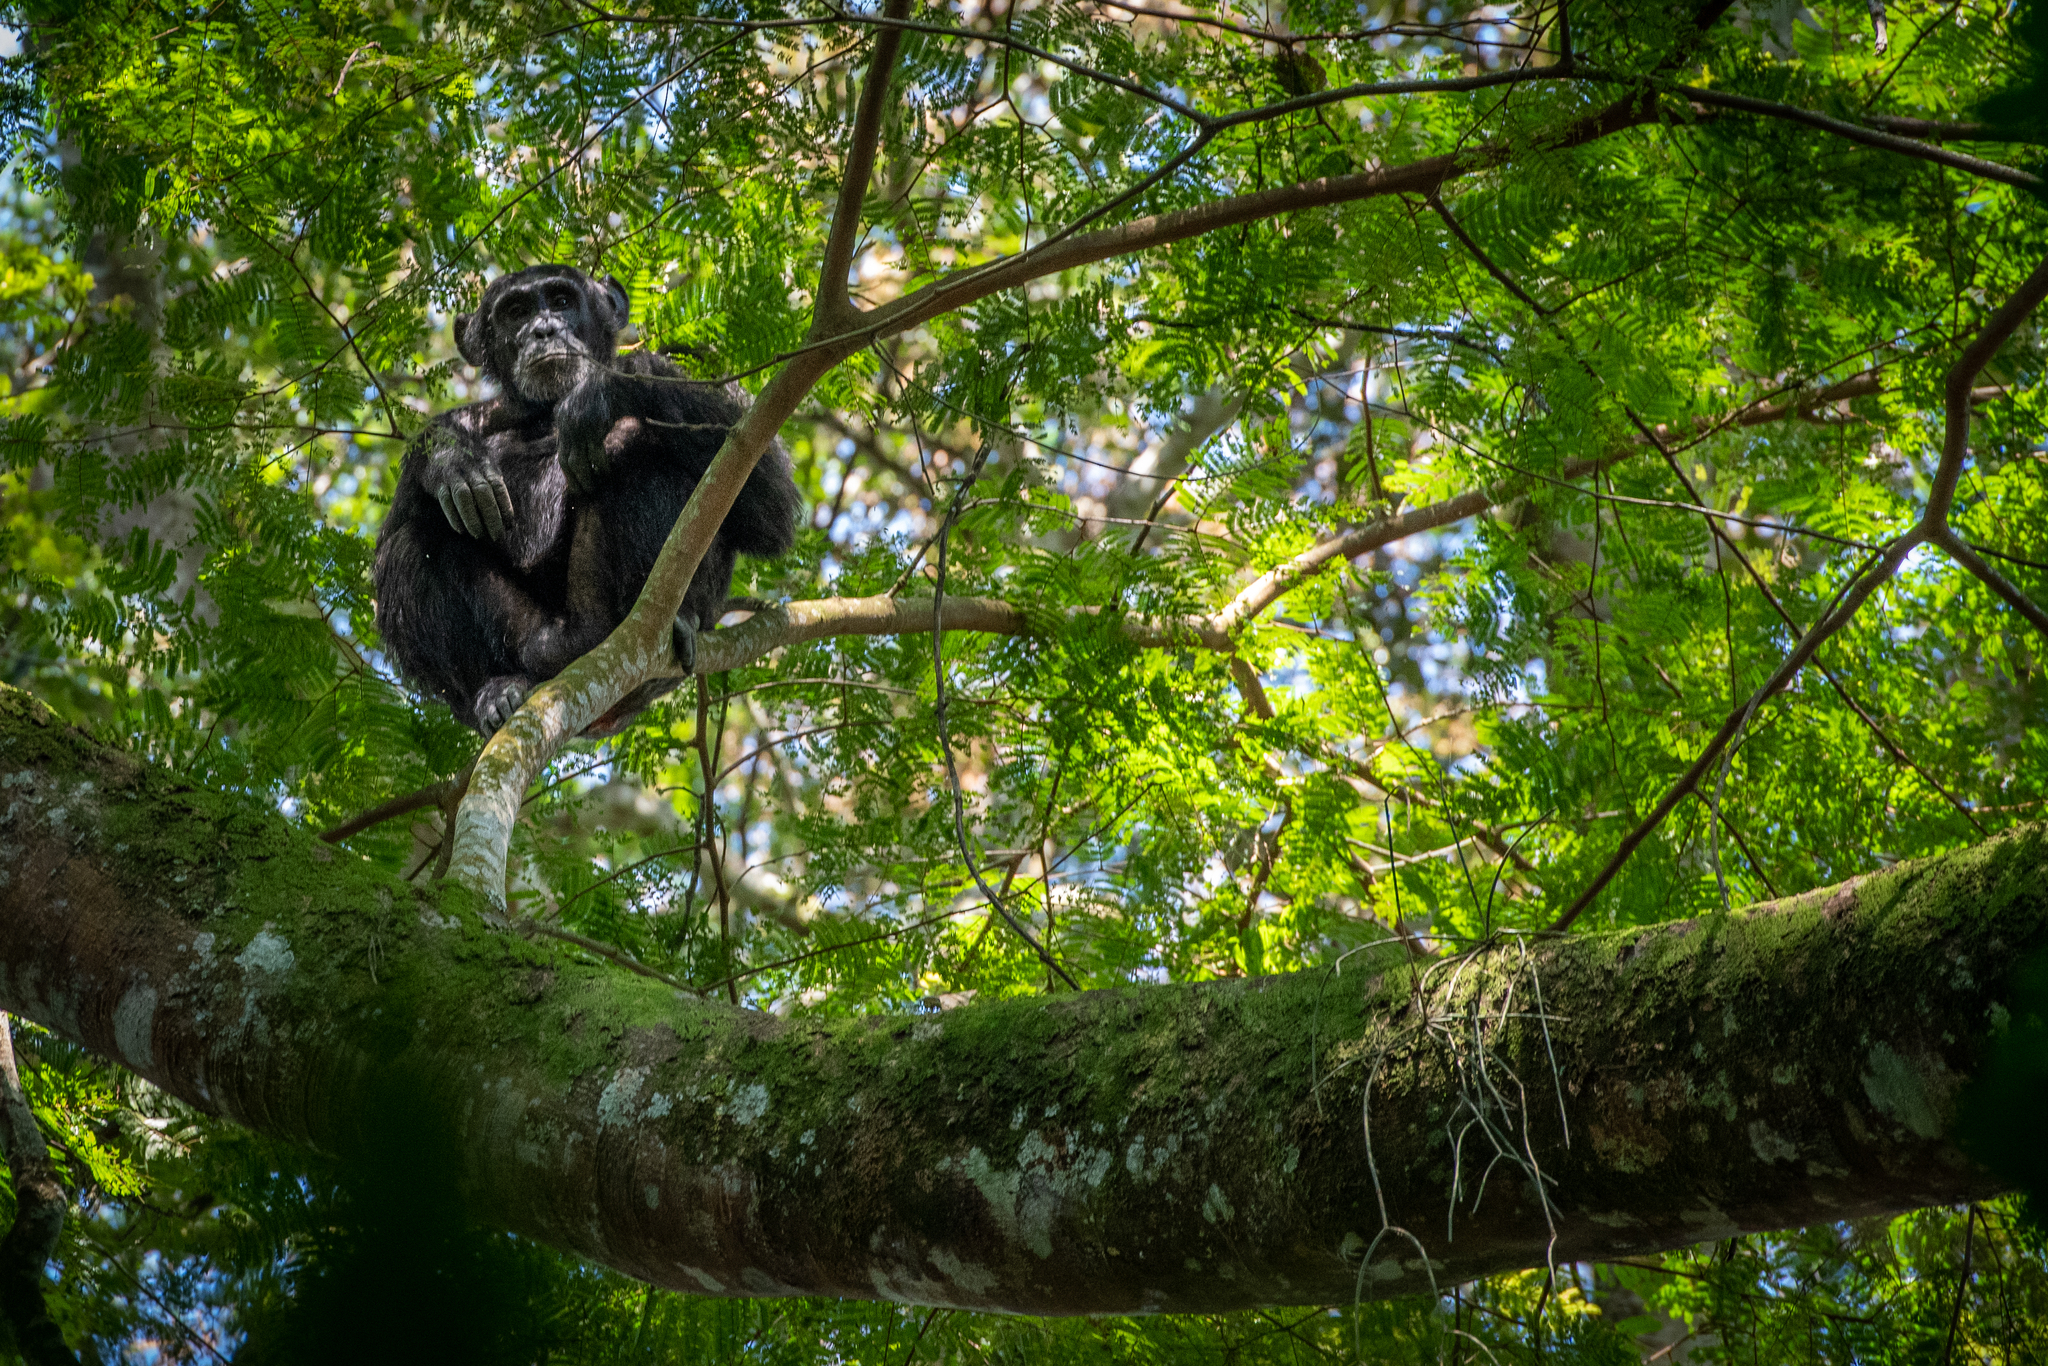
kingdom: Animalia
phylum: Chordata
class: Mammalia
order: Primates
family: Hominidae
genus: Pan
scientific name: Pan troglodytes
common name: Chimpanzee
